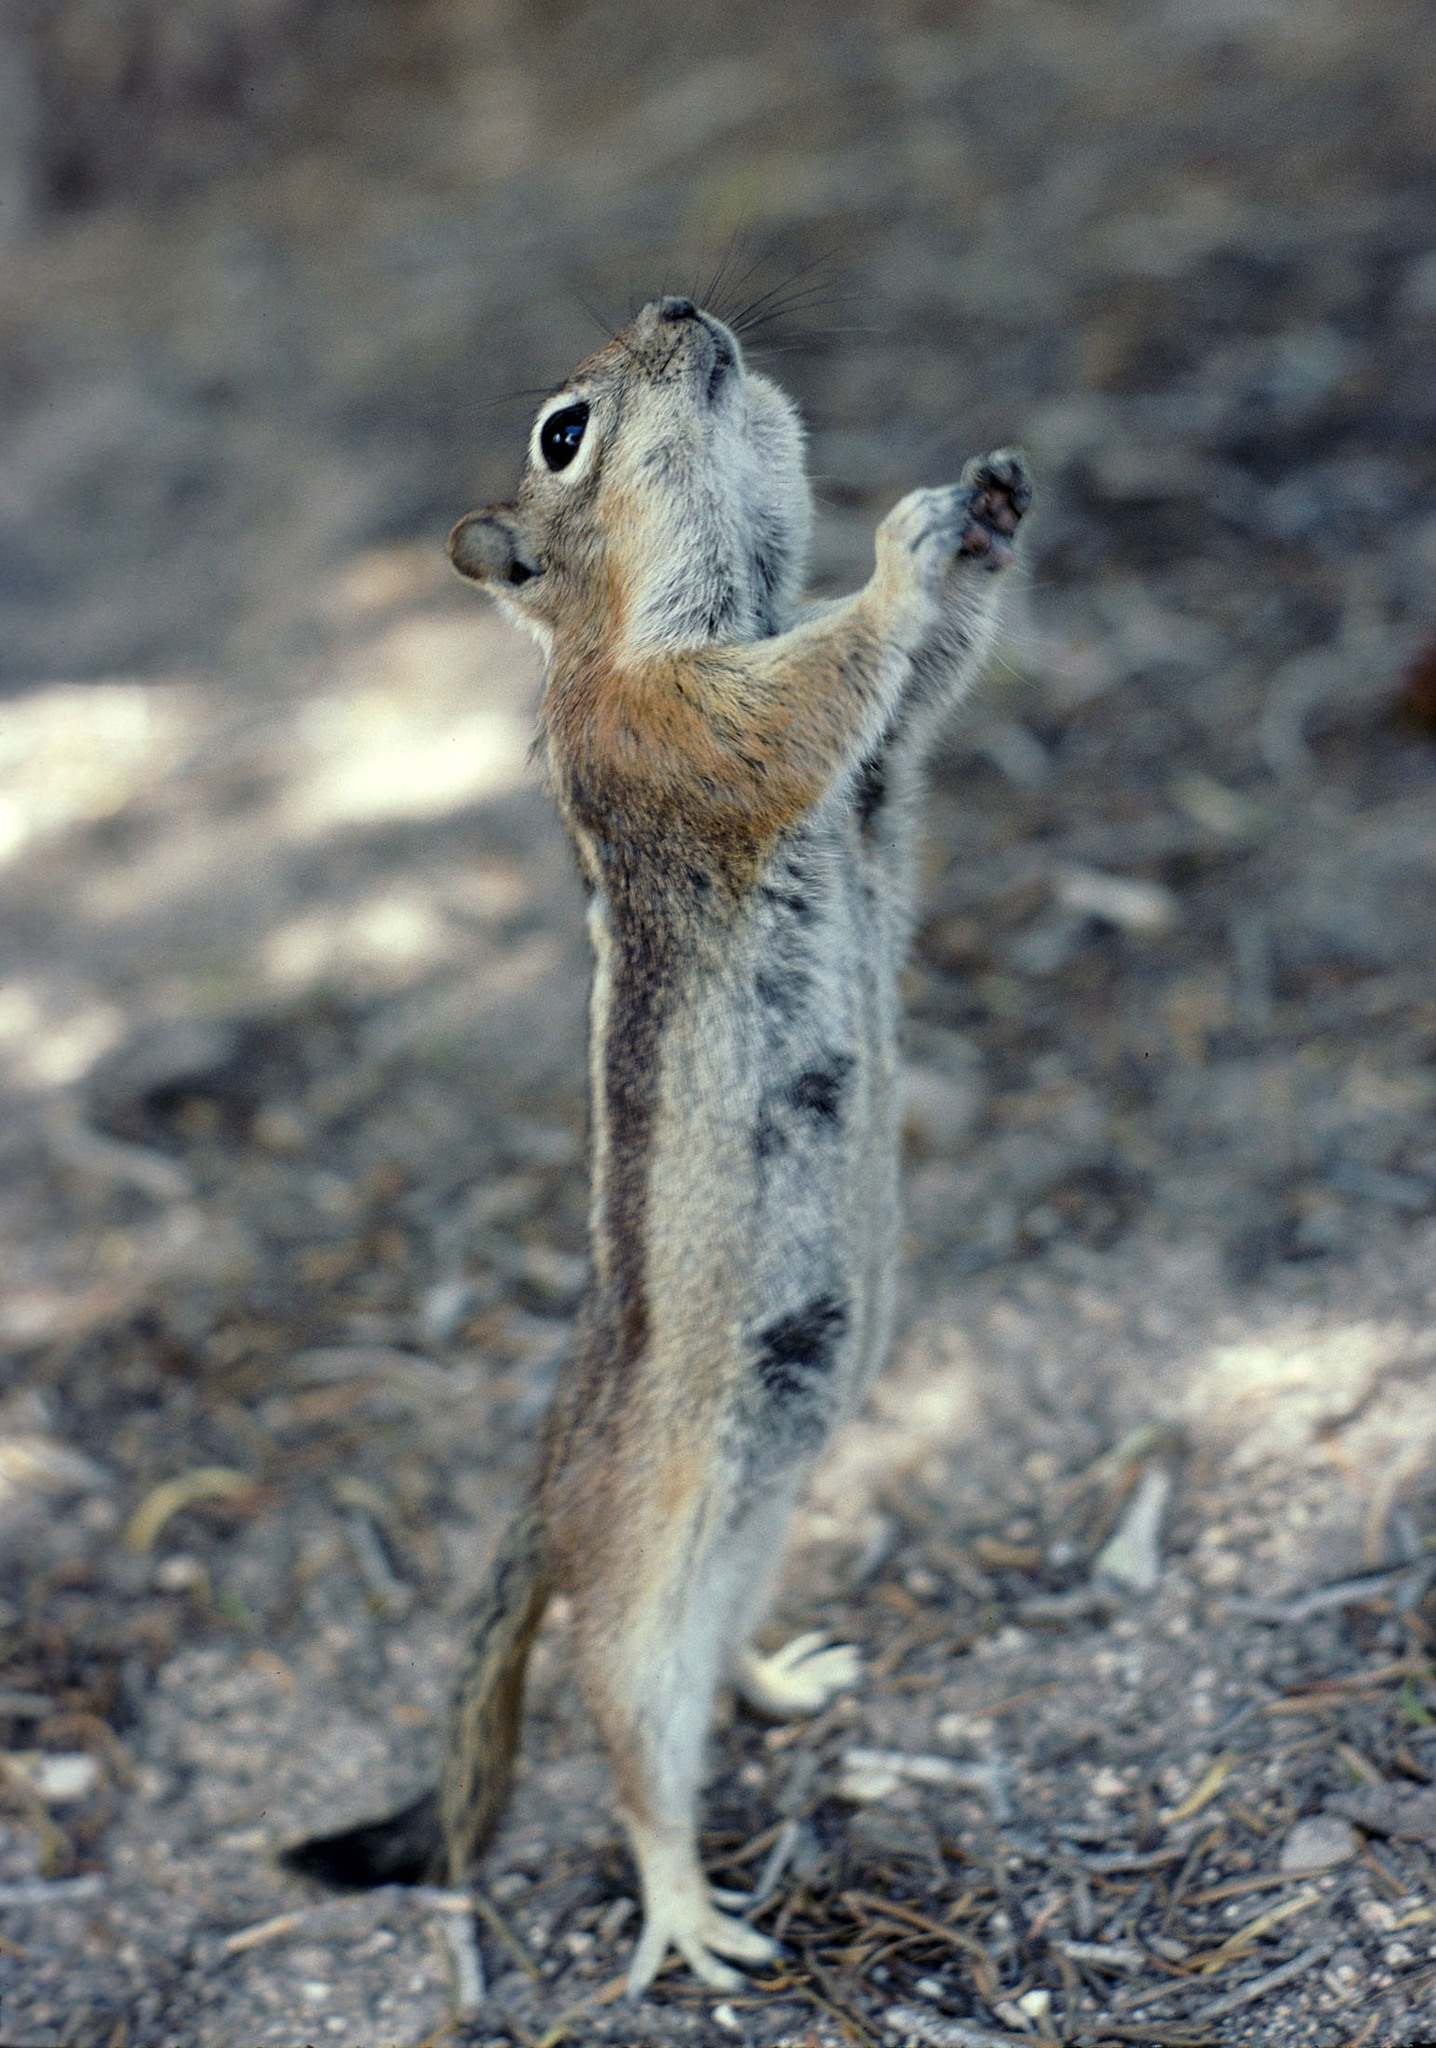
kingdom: Animalia
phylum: Chordata
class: Mammalia
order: Rodentia
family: Sciuridae
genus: Callospermophilus
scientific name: Callospermophilus lateralis
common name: Golden-mantled ground squirrel
